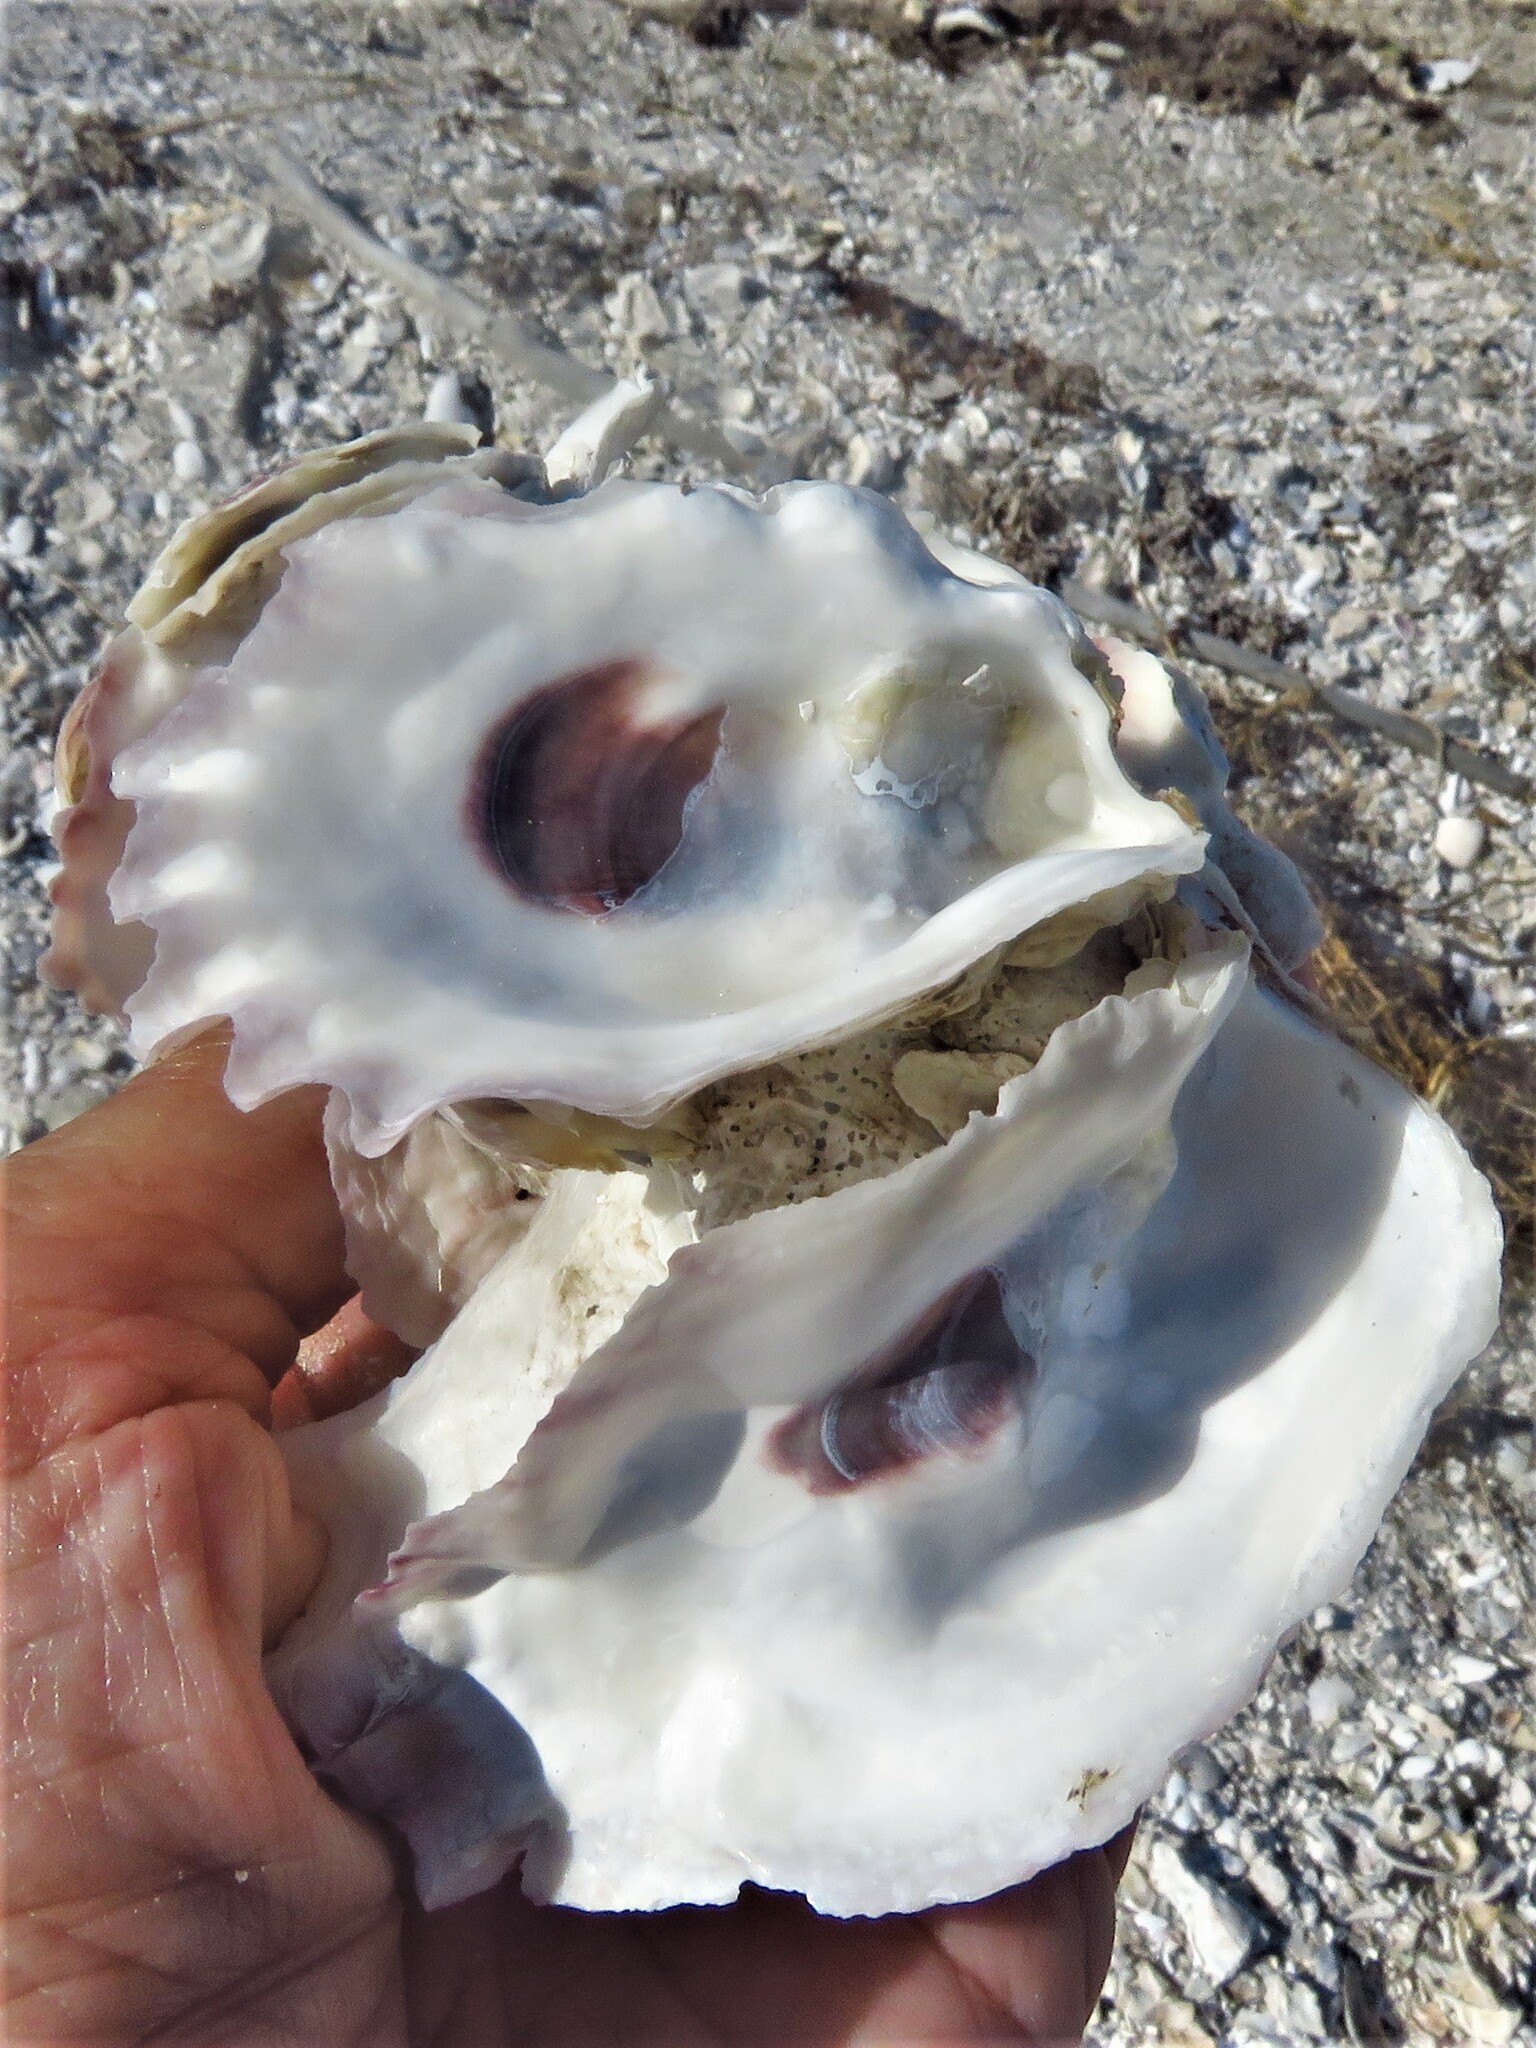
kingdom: Animalia
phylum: Mollusca
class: Bivalvia
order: Ostreida
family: Ostreidae
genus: Crassostrea
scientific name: Crassostrea virginica
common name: American oyster
